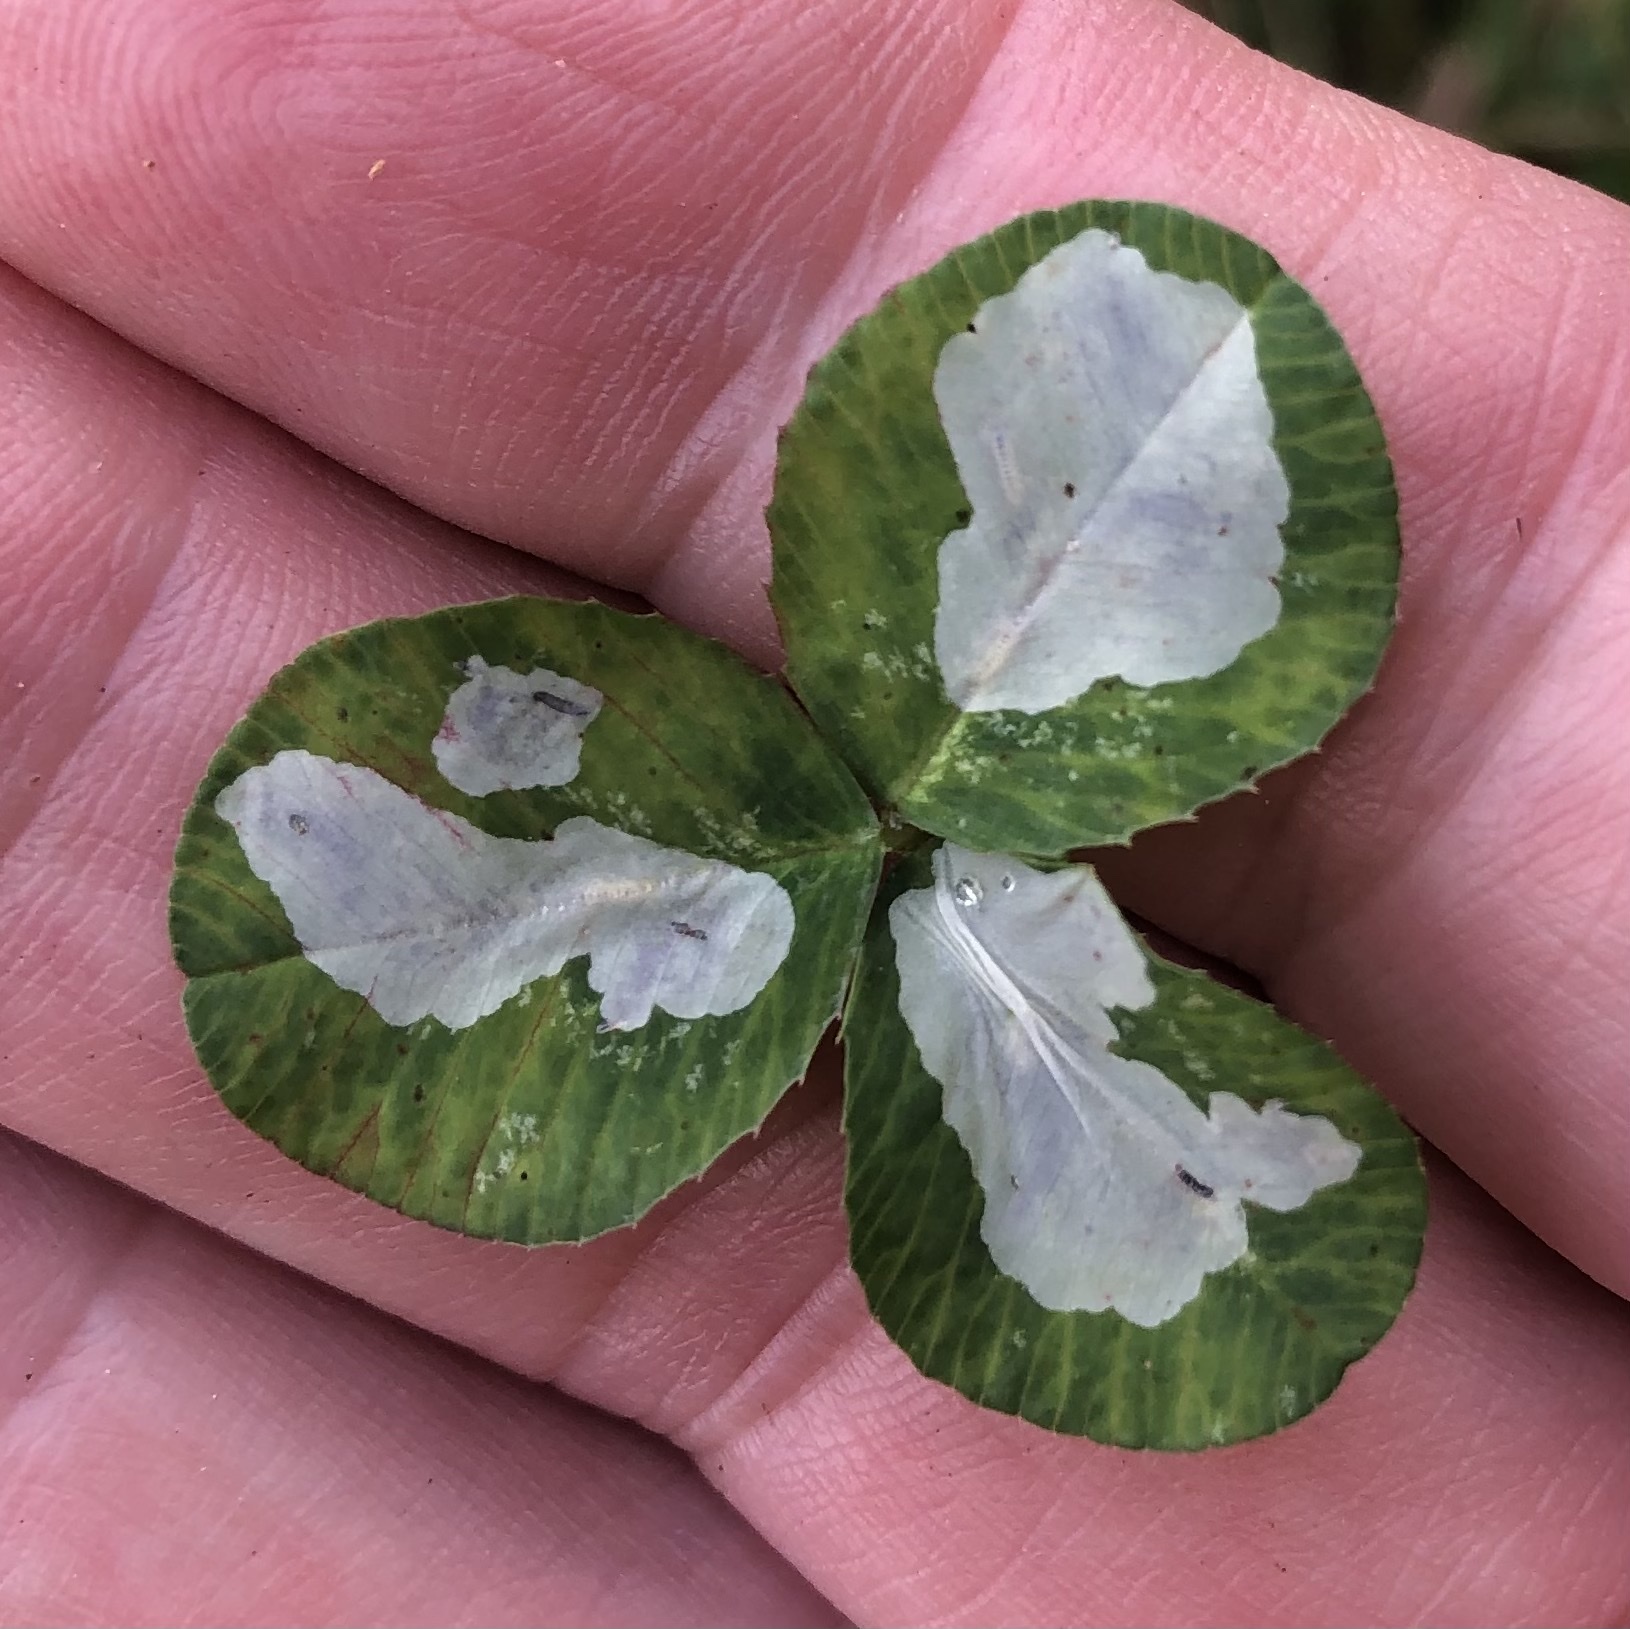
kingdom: Animalia
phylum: Arthropoda
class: Insecta
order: Lepidoptera
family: Gracillariidae
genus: Porphyrosela
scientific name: Porphyrosela minuta
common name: Leaf miner moth
